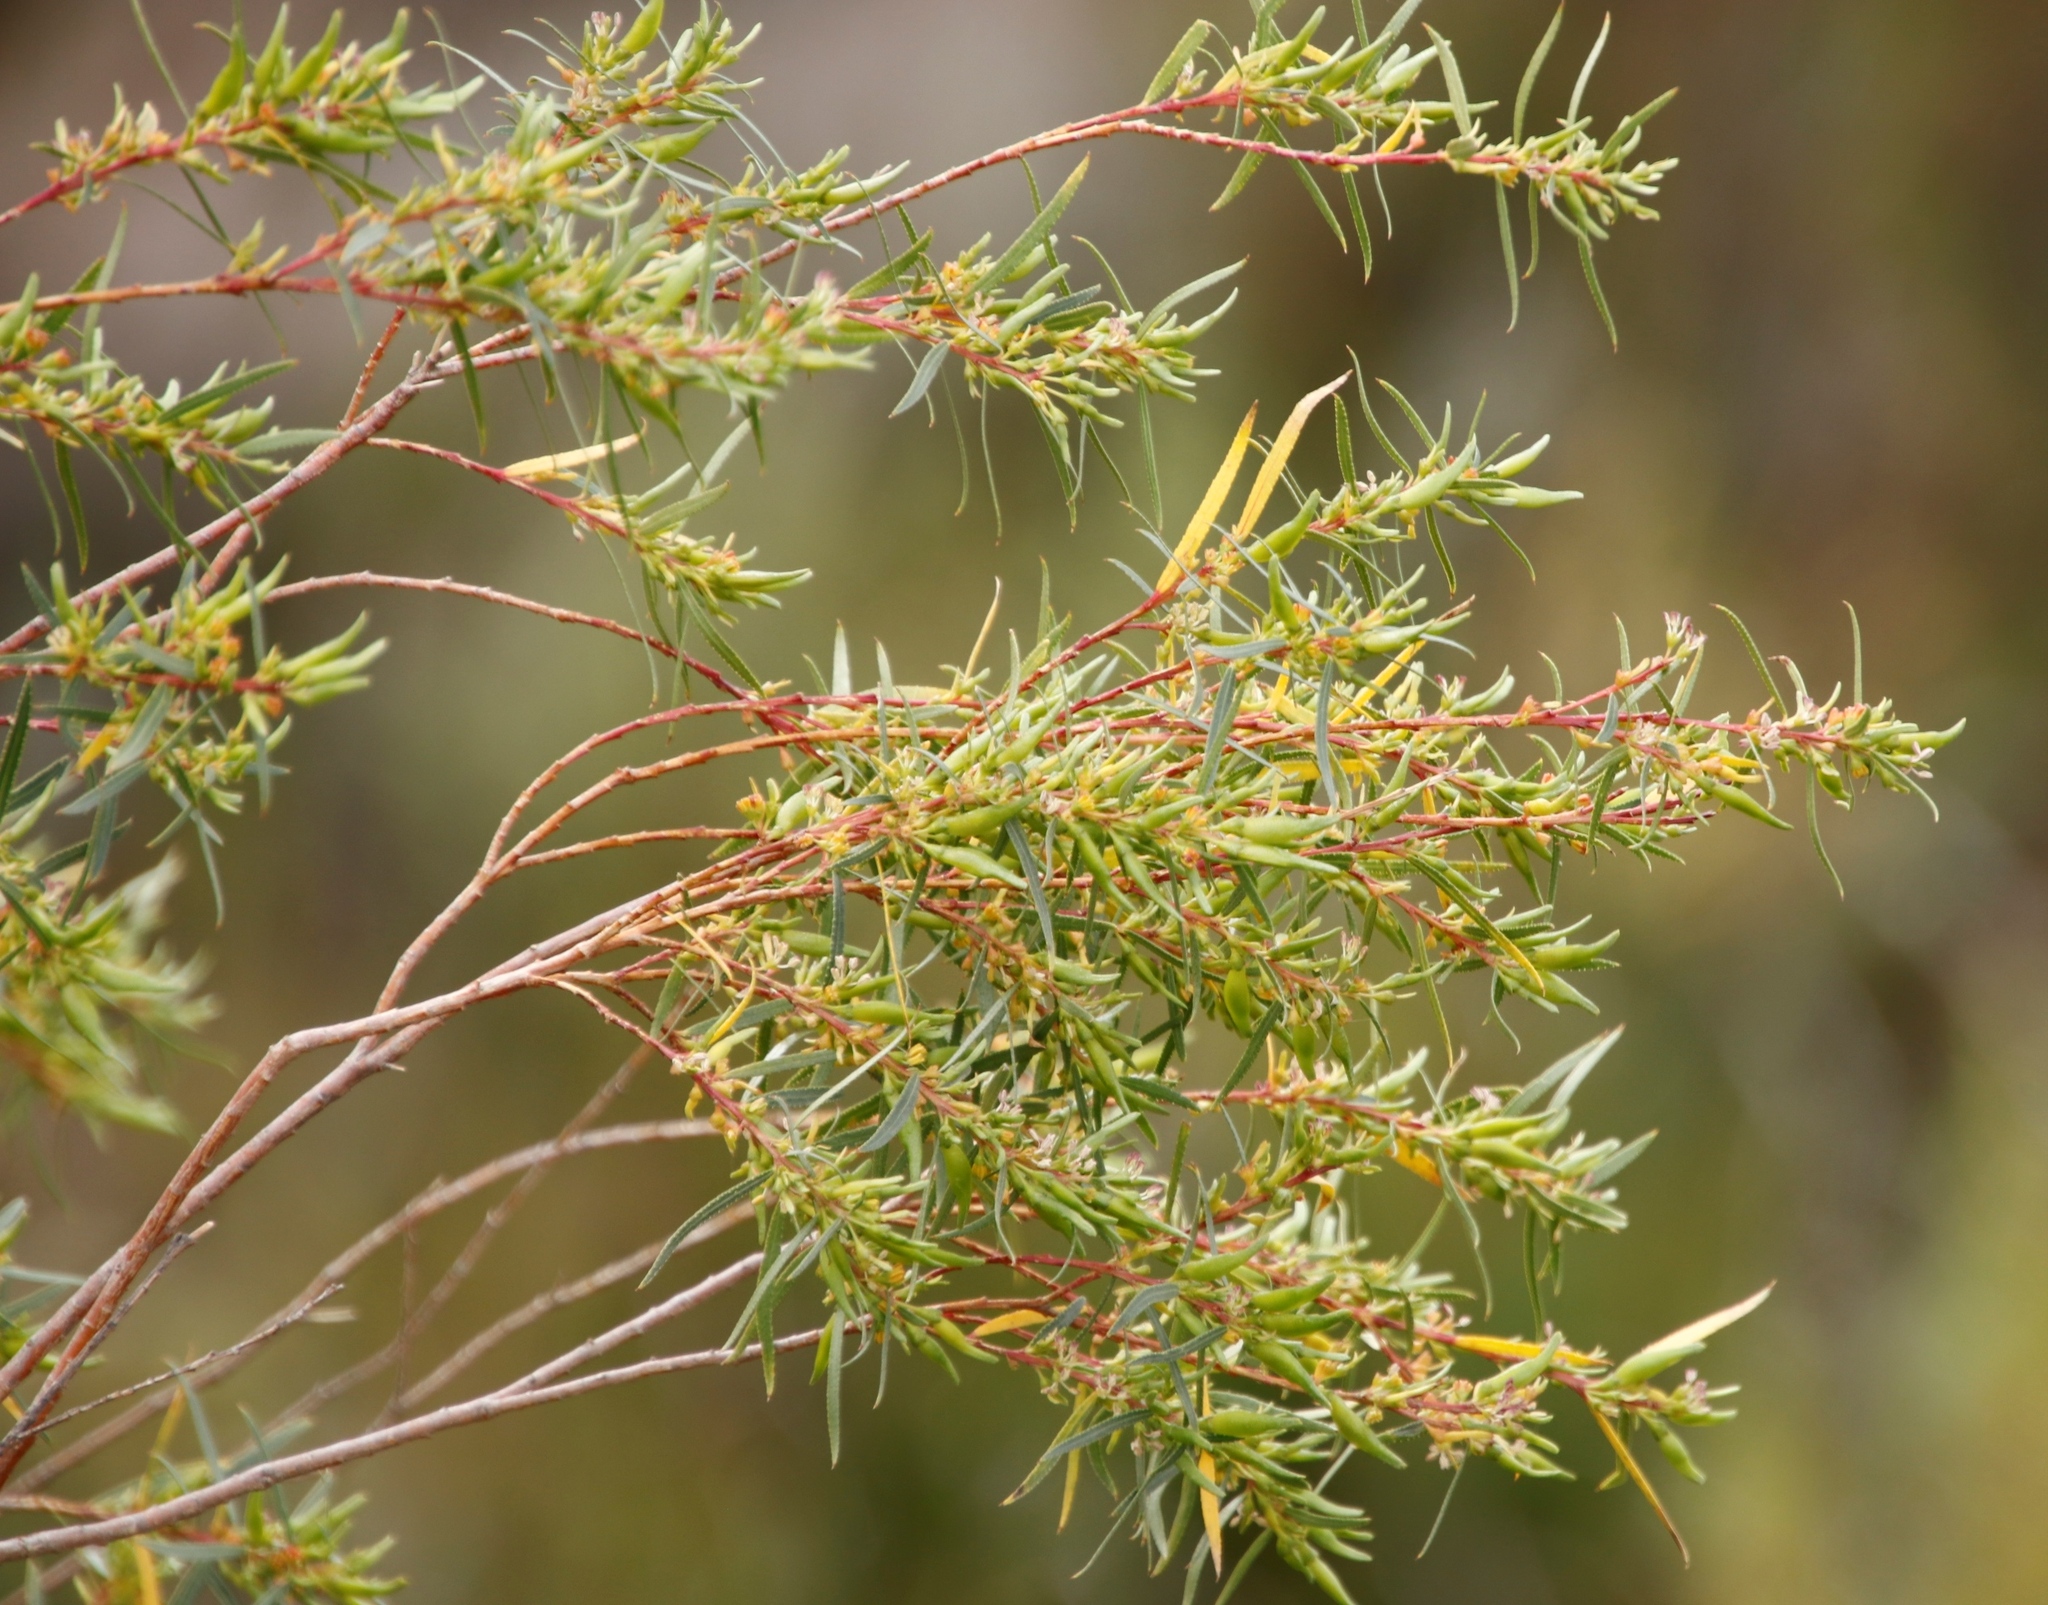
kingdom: Plantae
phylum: Tracheophyta
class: Magnoliopsida
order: Sapindales
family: Rutaceae
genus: Empleurum
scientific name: Empleurum unicapsulare
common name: False buchu
